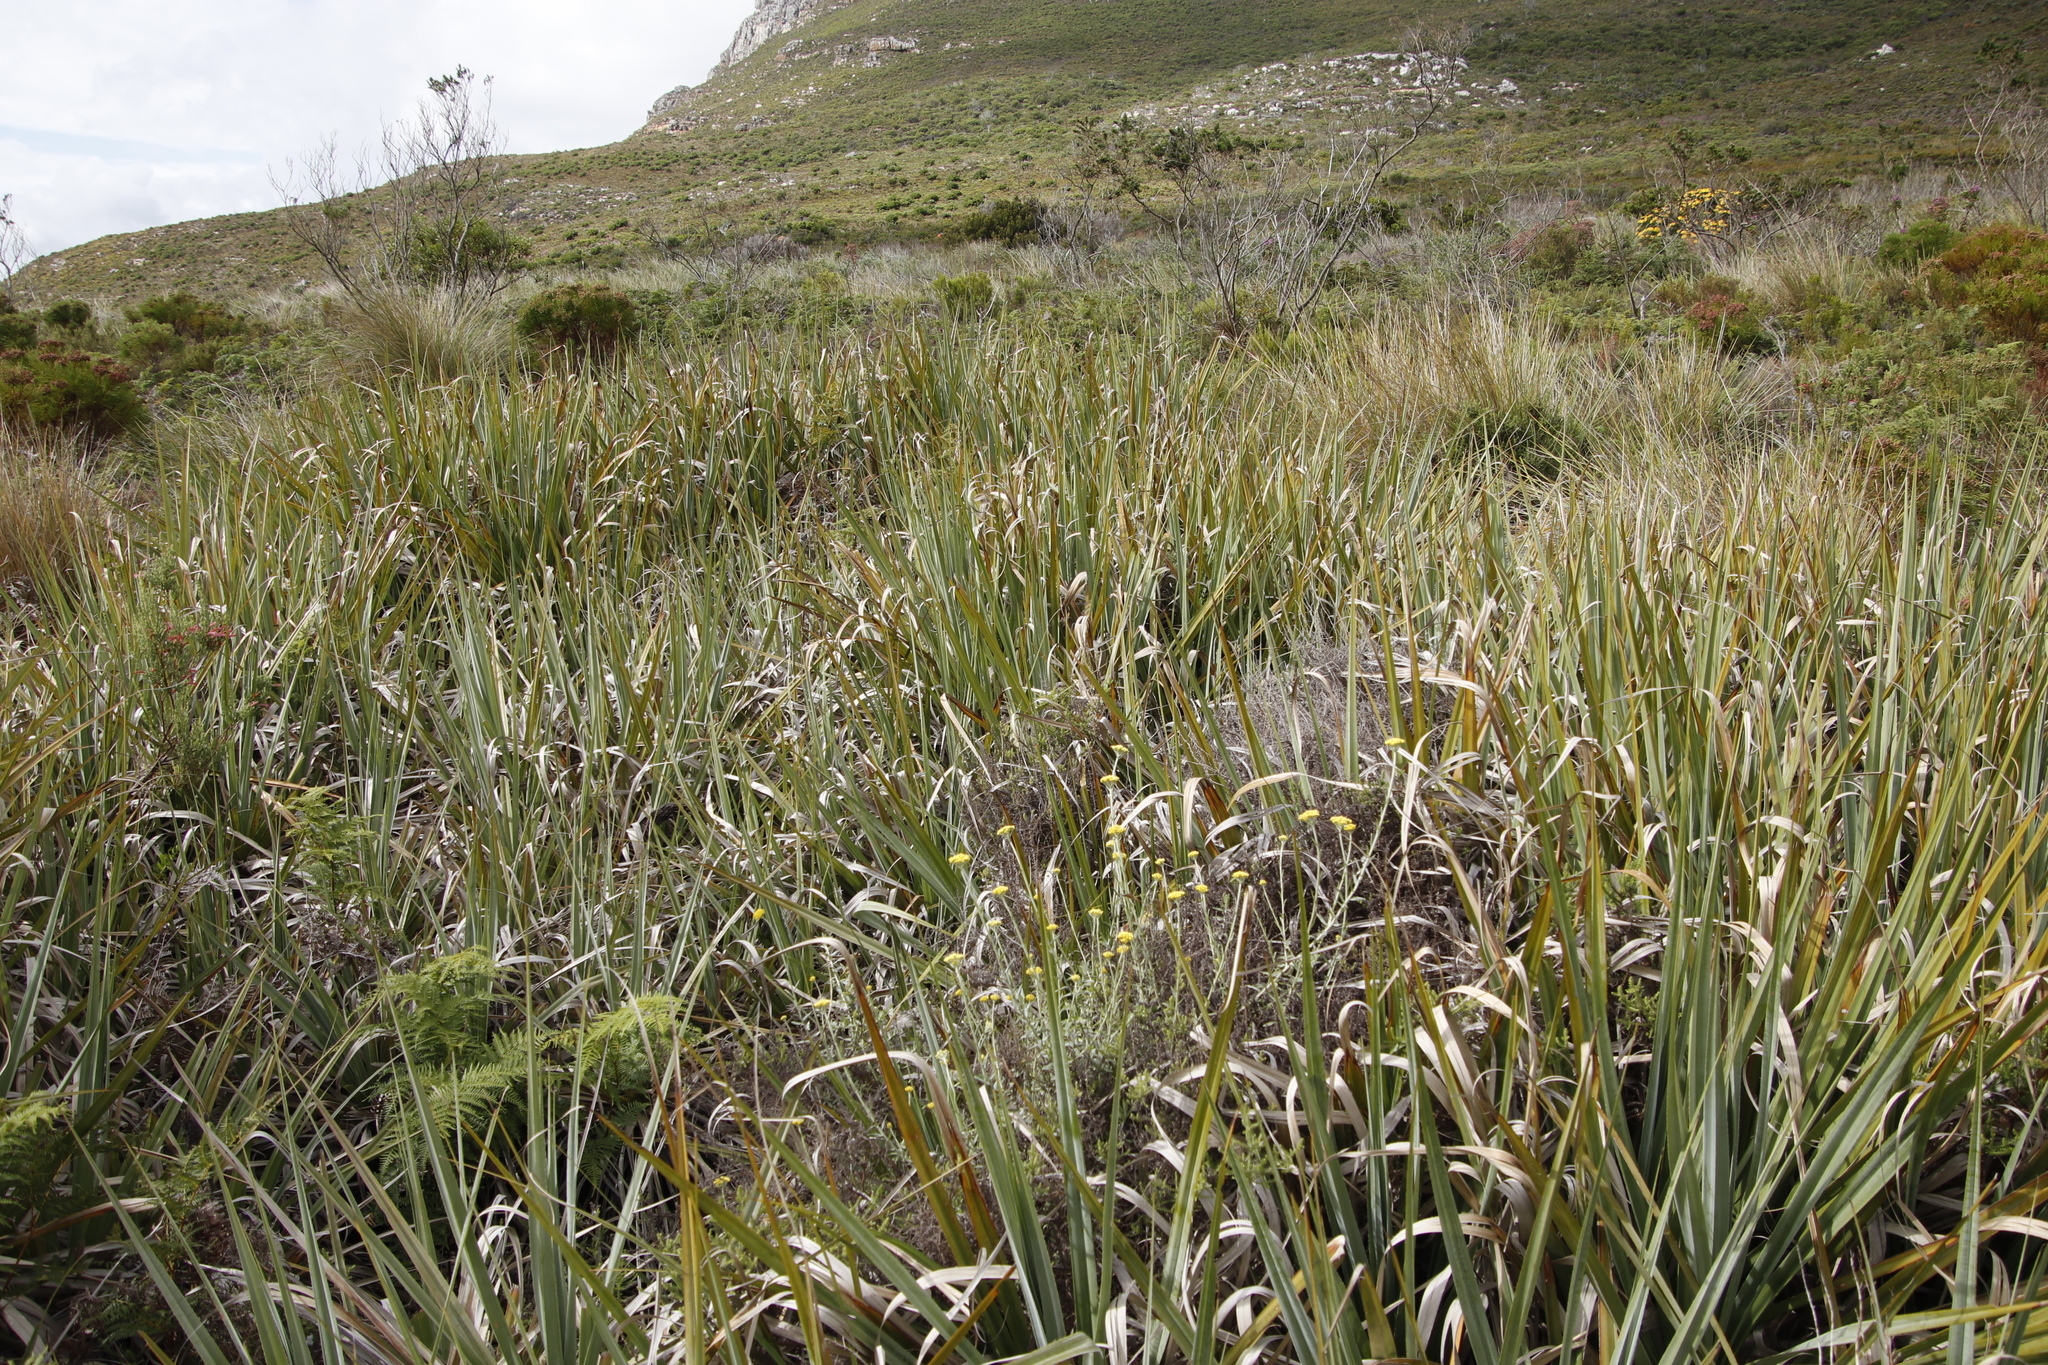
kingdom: Plantae
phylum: Tracheophyta
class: Liliopsida
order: Poales
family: Thurniaceae
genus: Prionium
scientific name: Prionium serratum
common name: Palmiet
